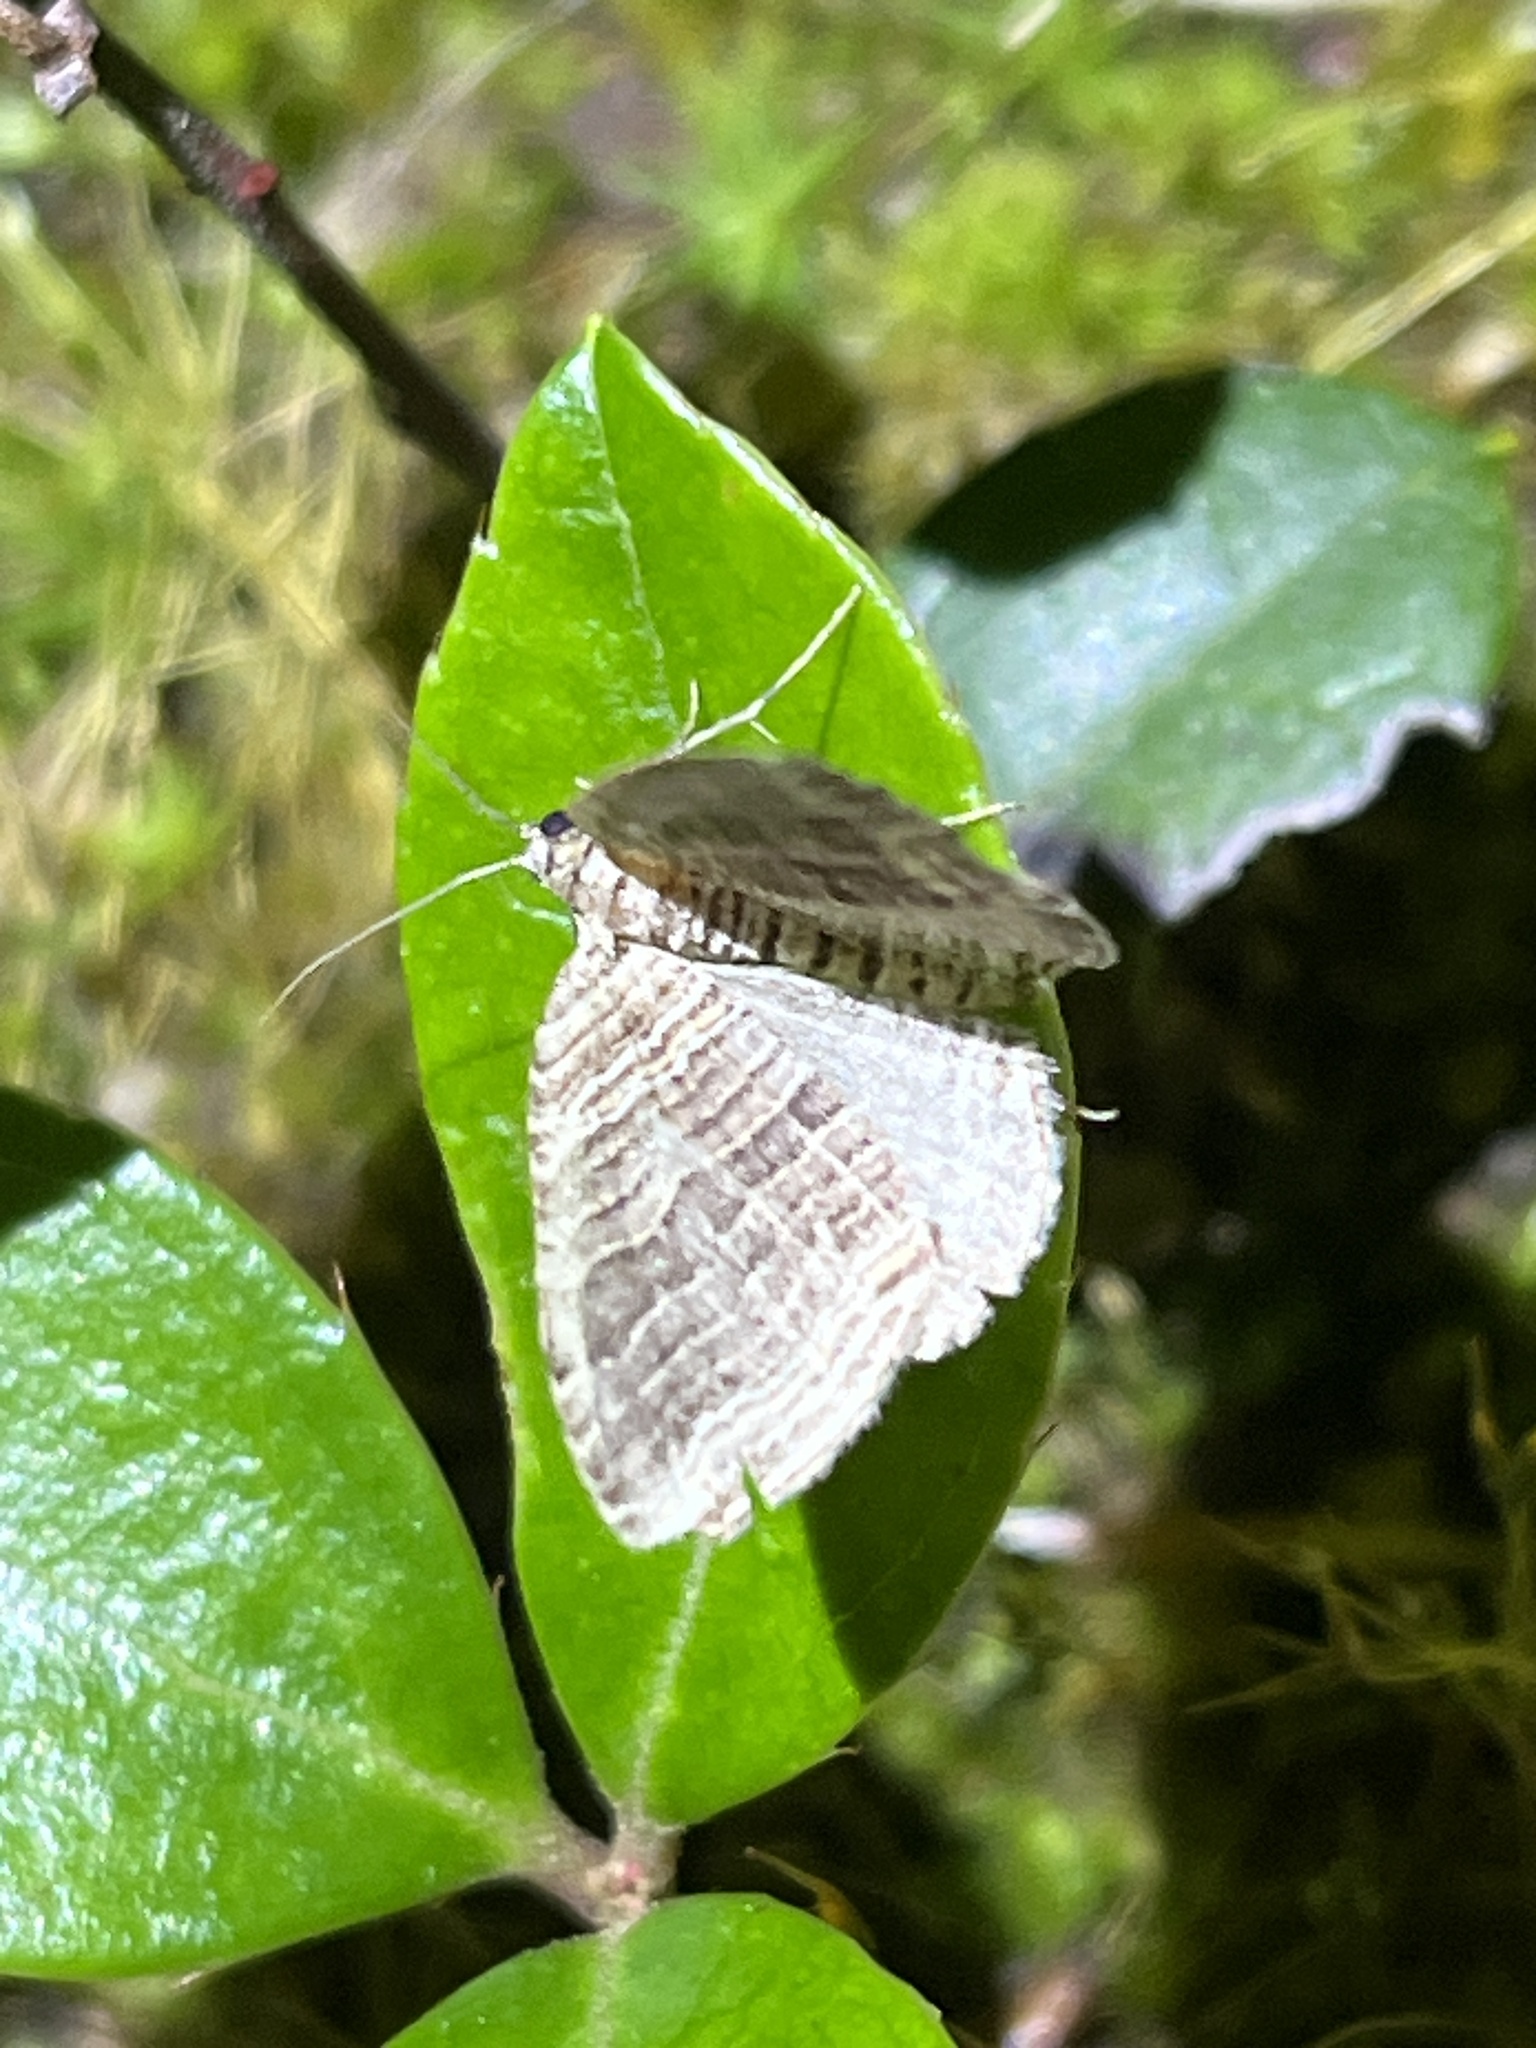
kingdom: Animalia
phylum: Arthropoda
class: Insecta
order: Lepidoptera
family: Geometridae
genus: Anticlea
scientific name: Anticlea multiferata
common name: Many-lined carpet
